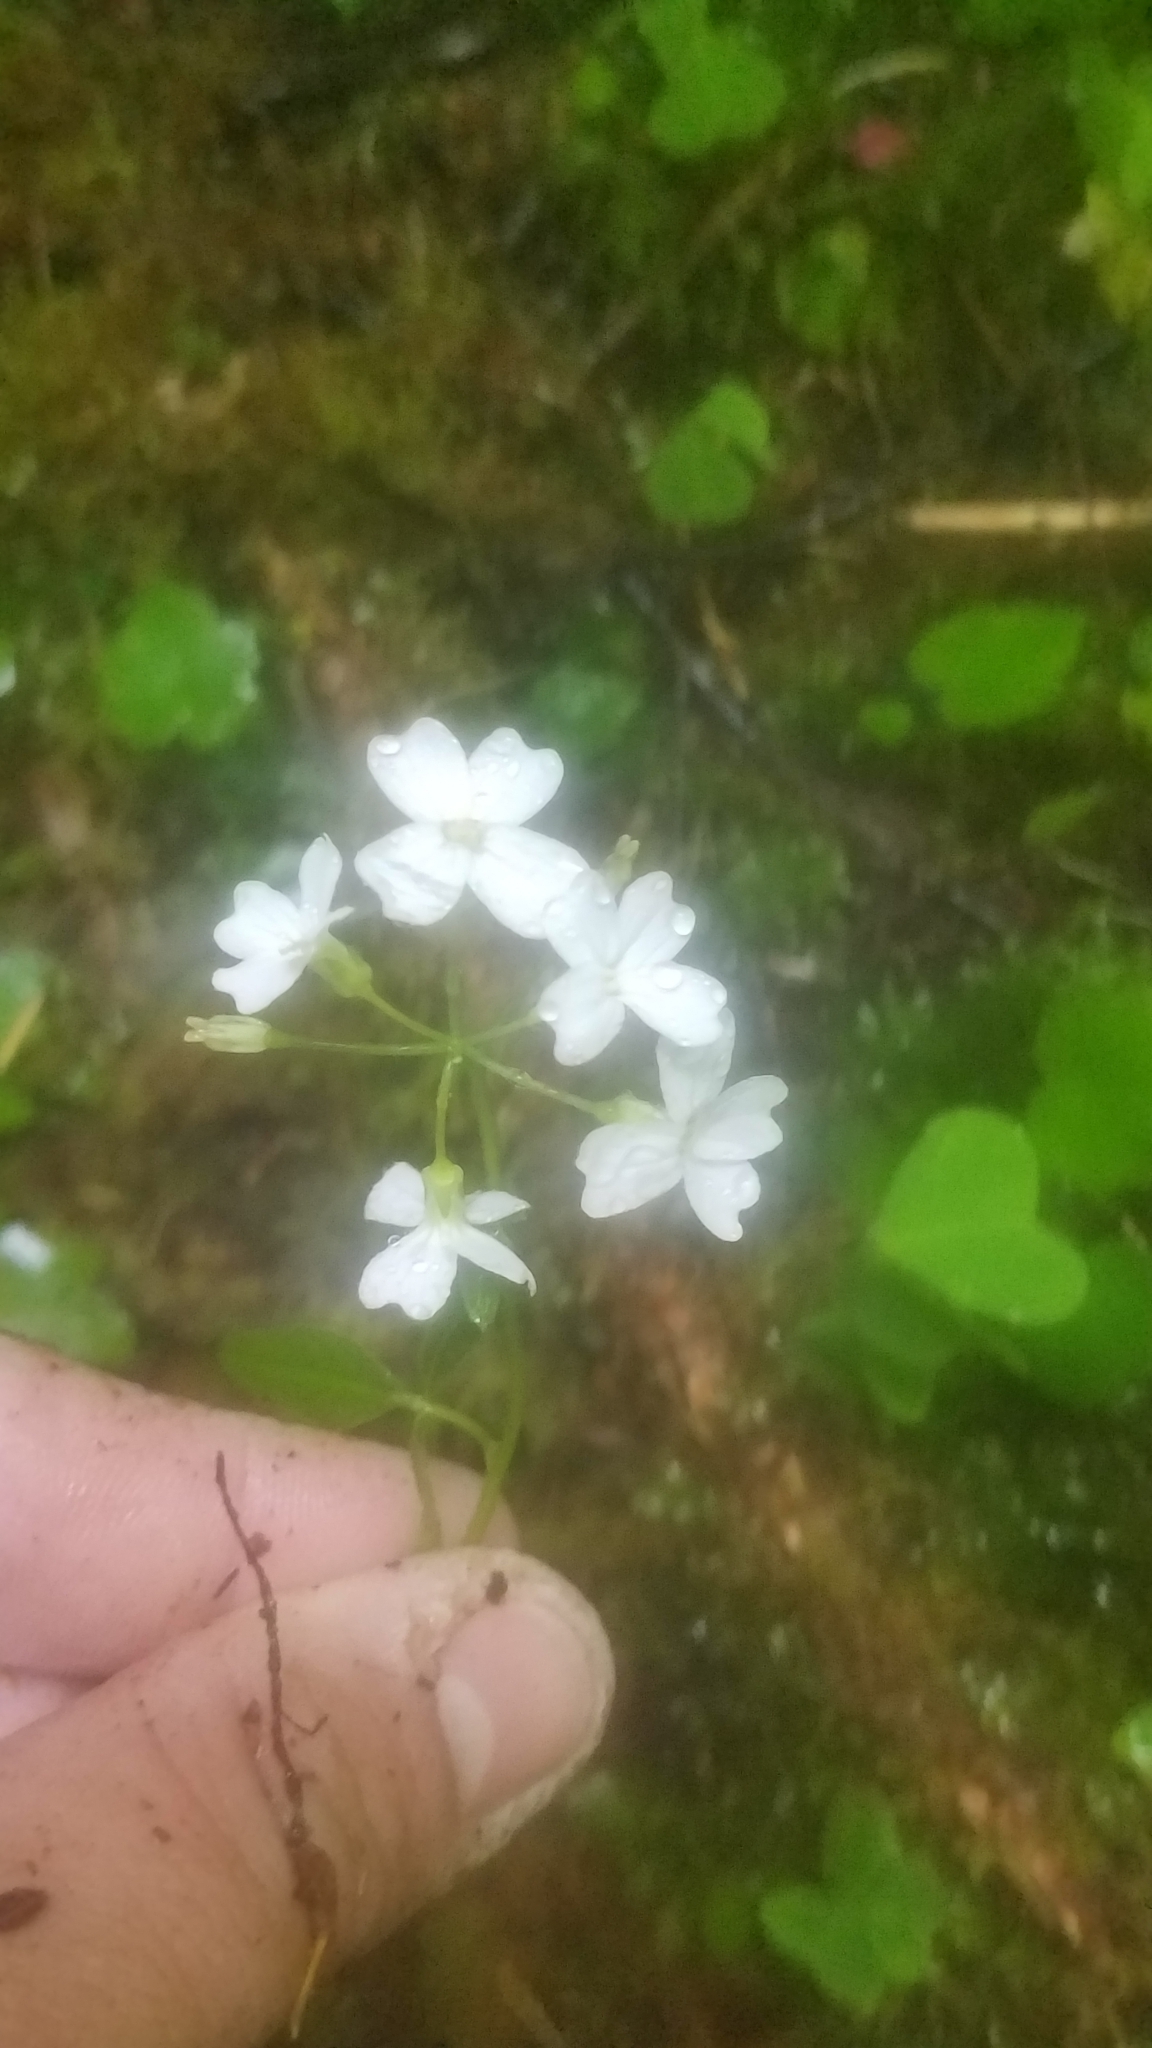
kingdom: Plantae
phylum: Tracheophyta
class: Magnoliopsida
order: Brassicales
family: Brassicaceae
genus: Cardamine
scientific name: Cardamine angulata
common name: Angled bittercress
